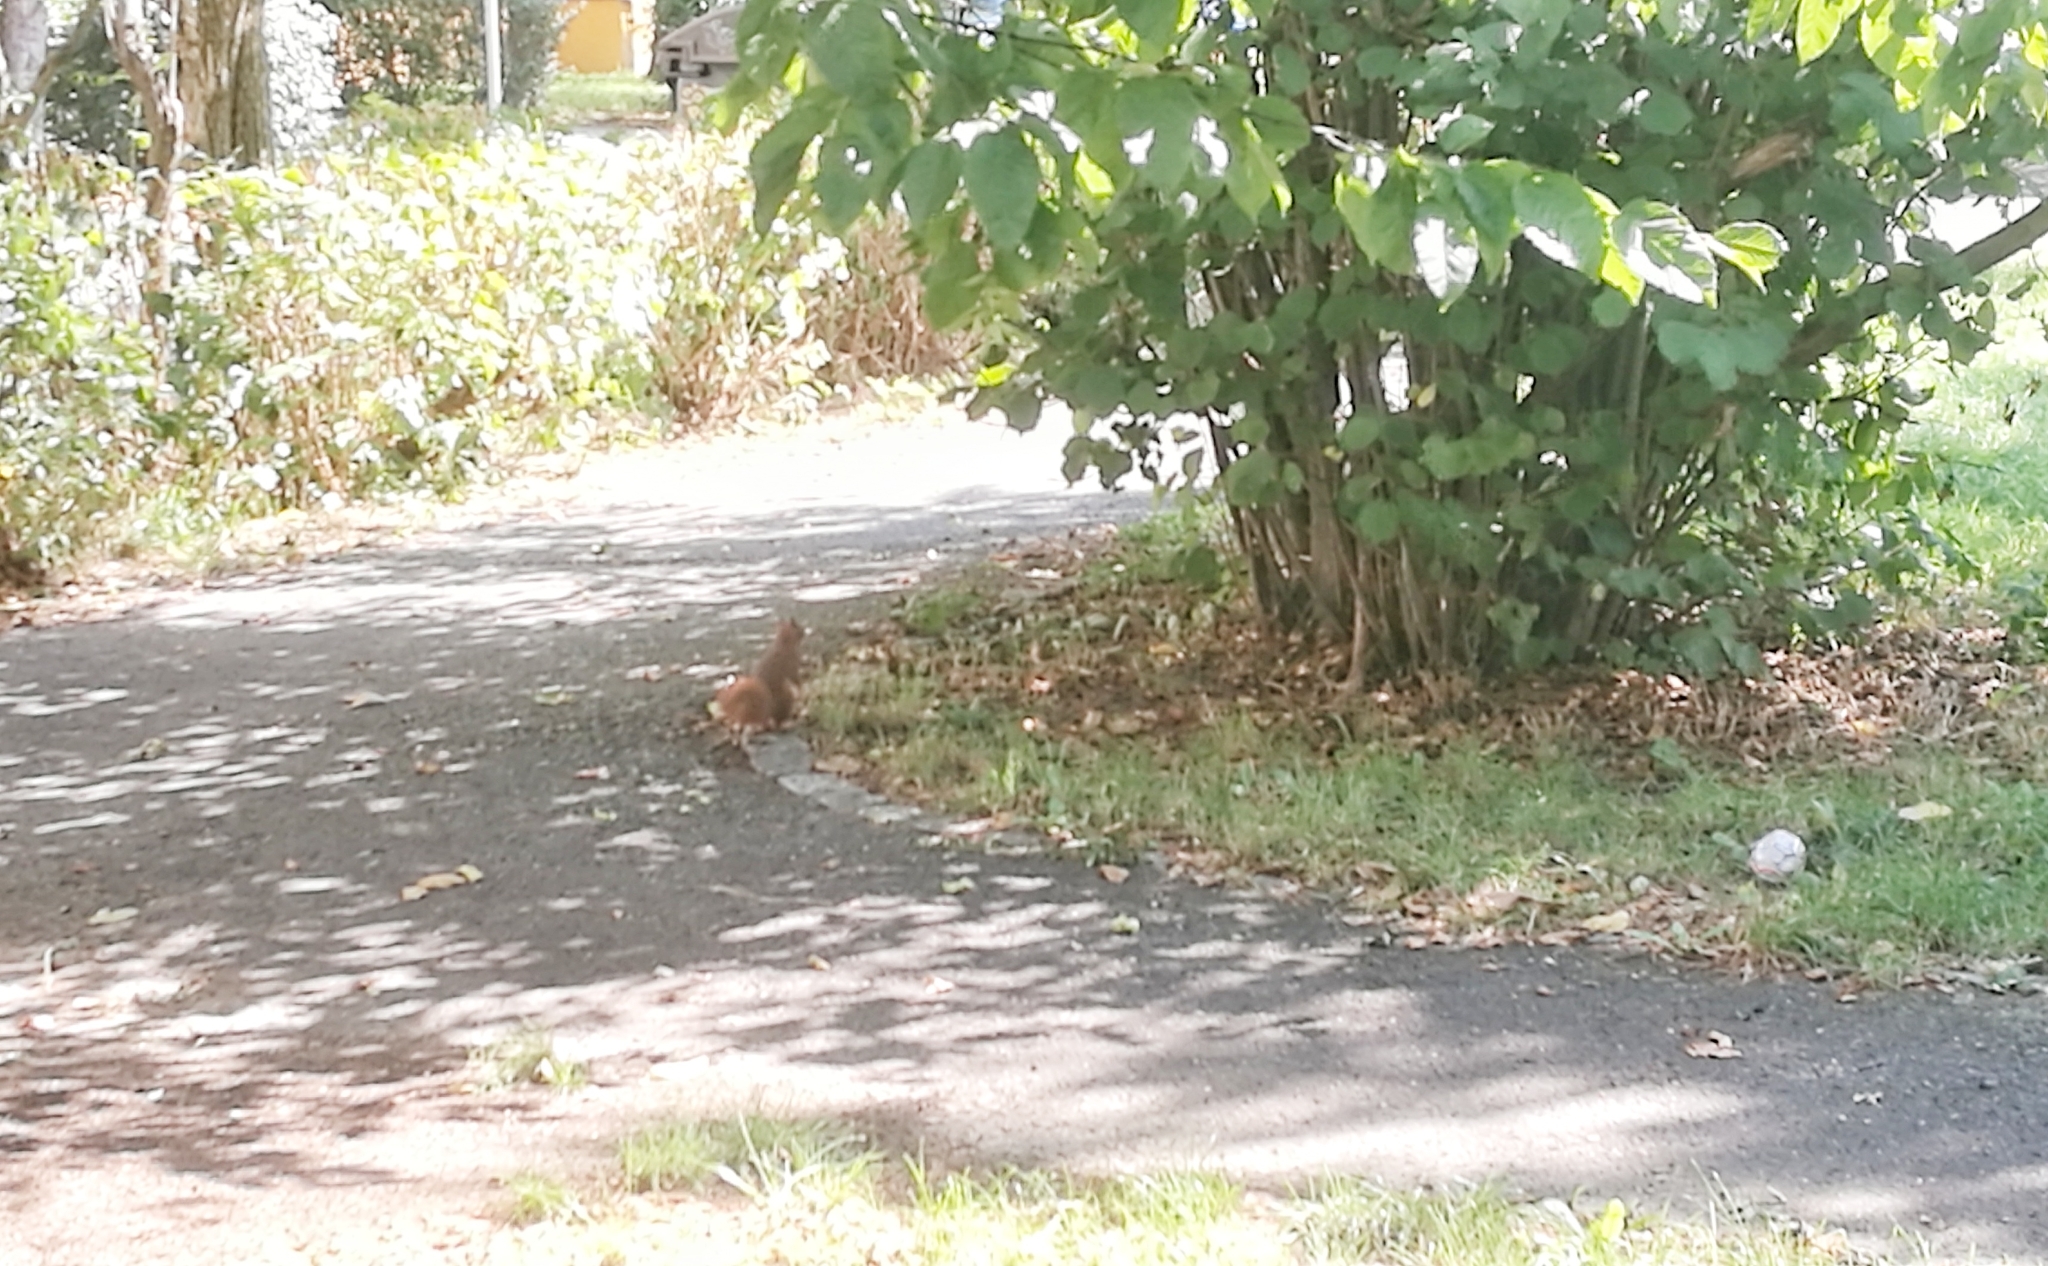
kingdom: Animalia
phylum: Chordata
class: Mammalia
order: Rodentia
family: Sciuridae
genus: Sciurus
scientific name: Sciurus vulgaris
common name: Eurasian red squirrel
